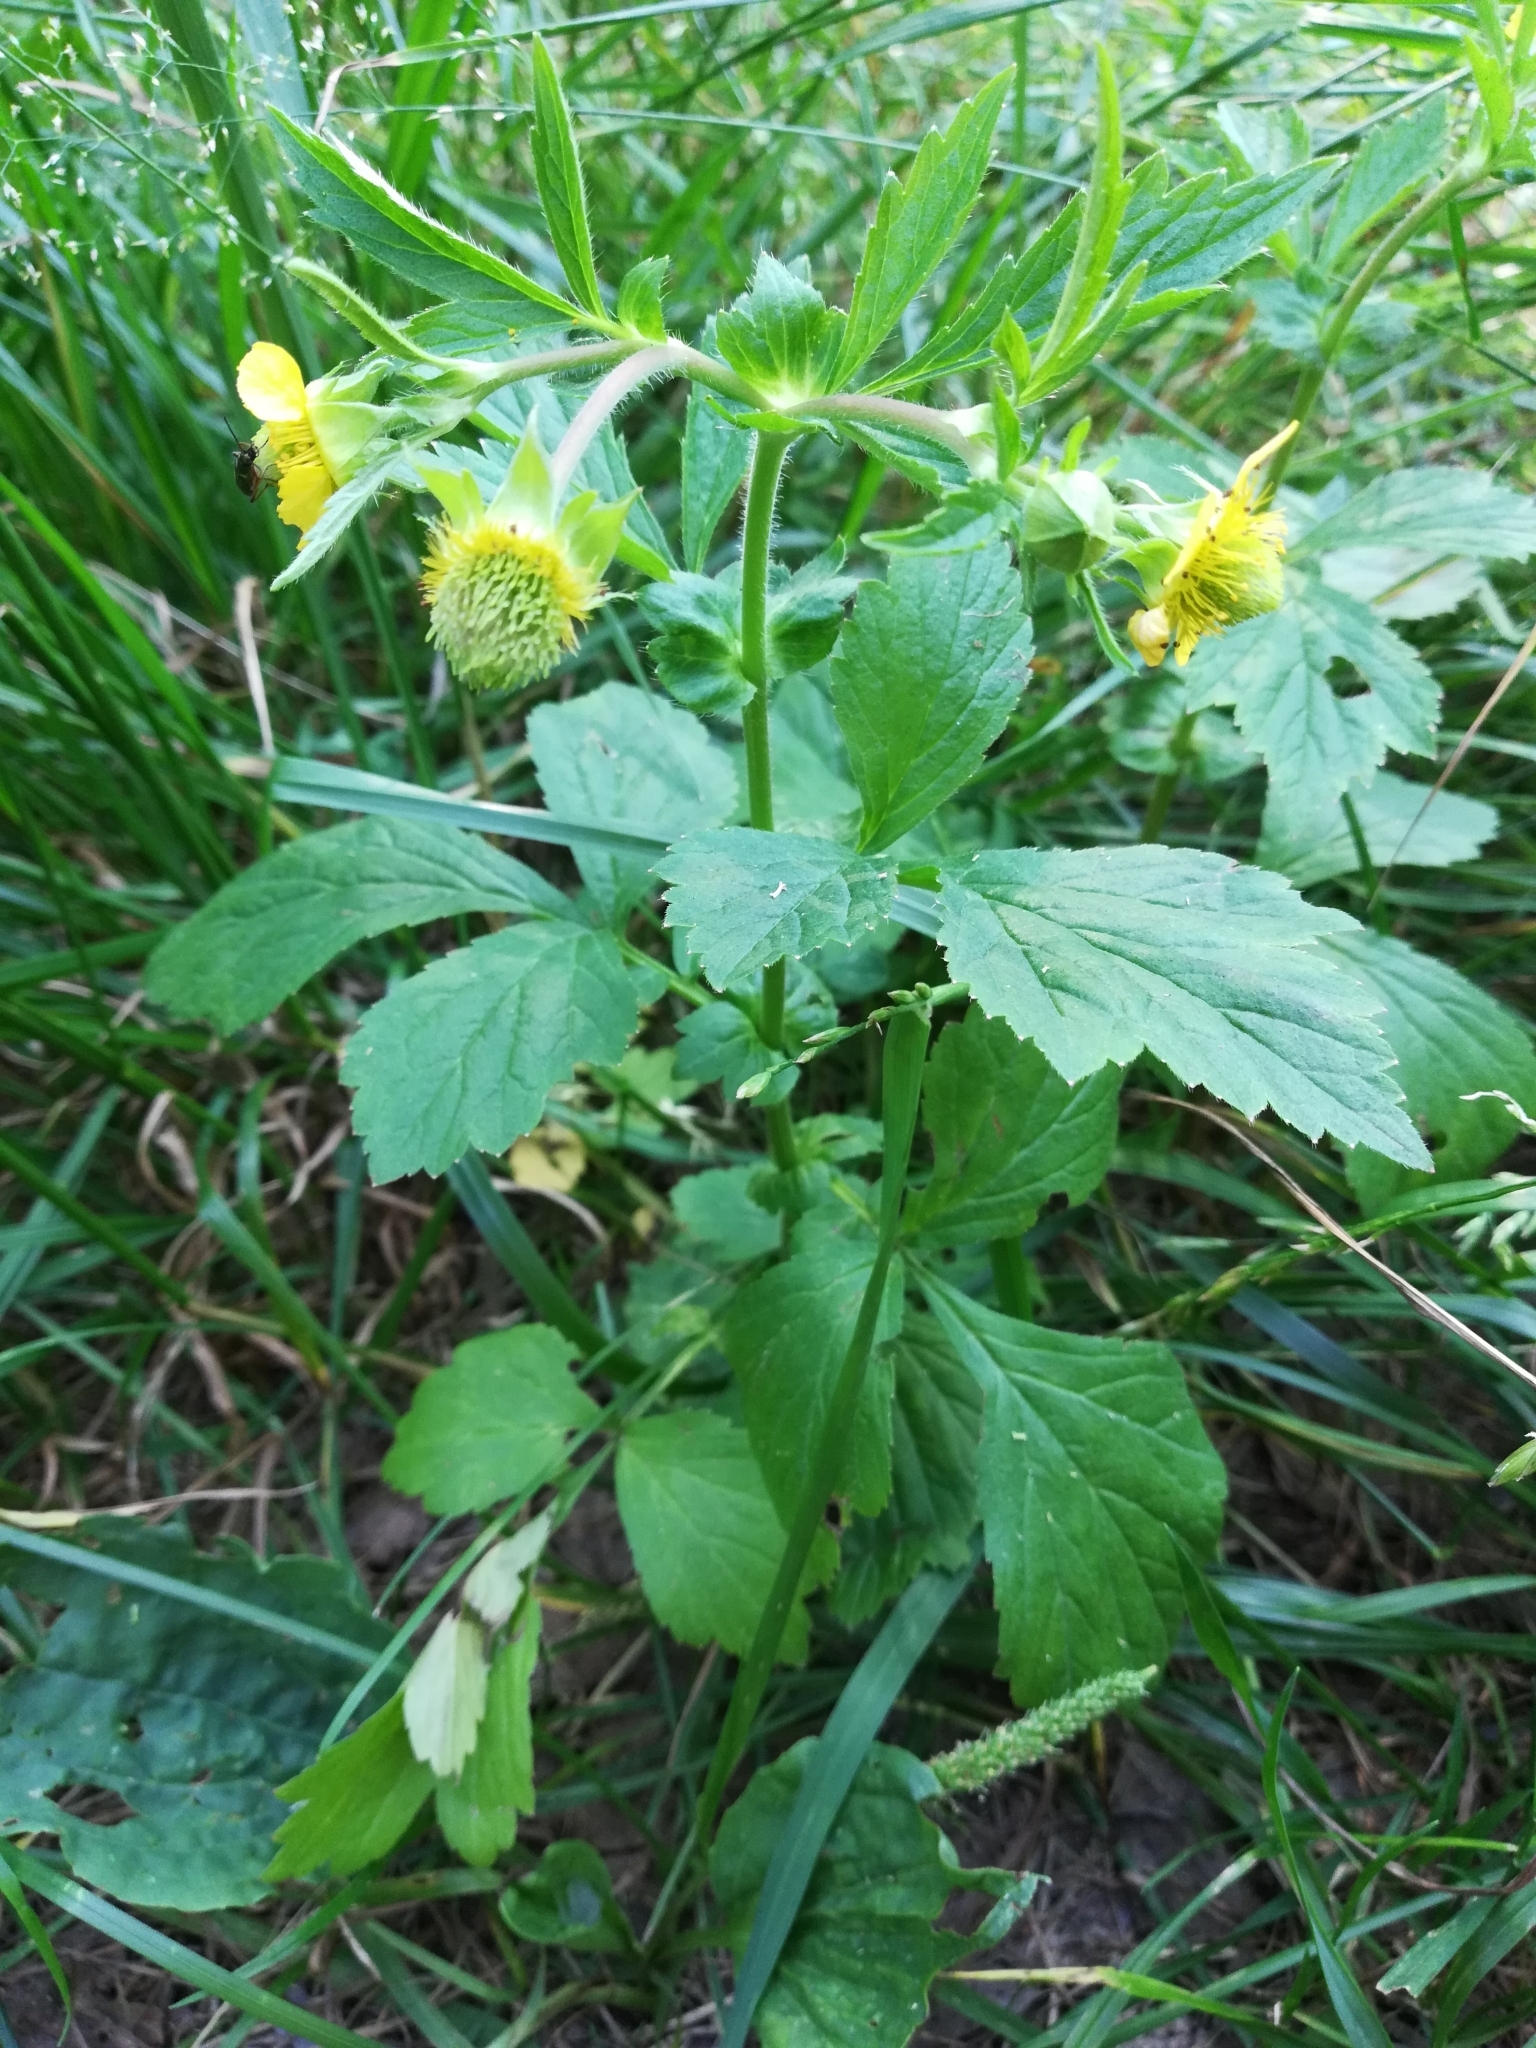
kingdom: Plantae
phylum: Tracheophyta
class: Magnoliopsida
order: Rosales
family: Rosaceae
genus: Geum
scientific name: Geum aleppicum
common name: Yellow avens
